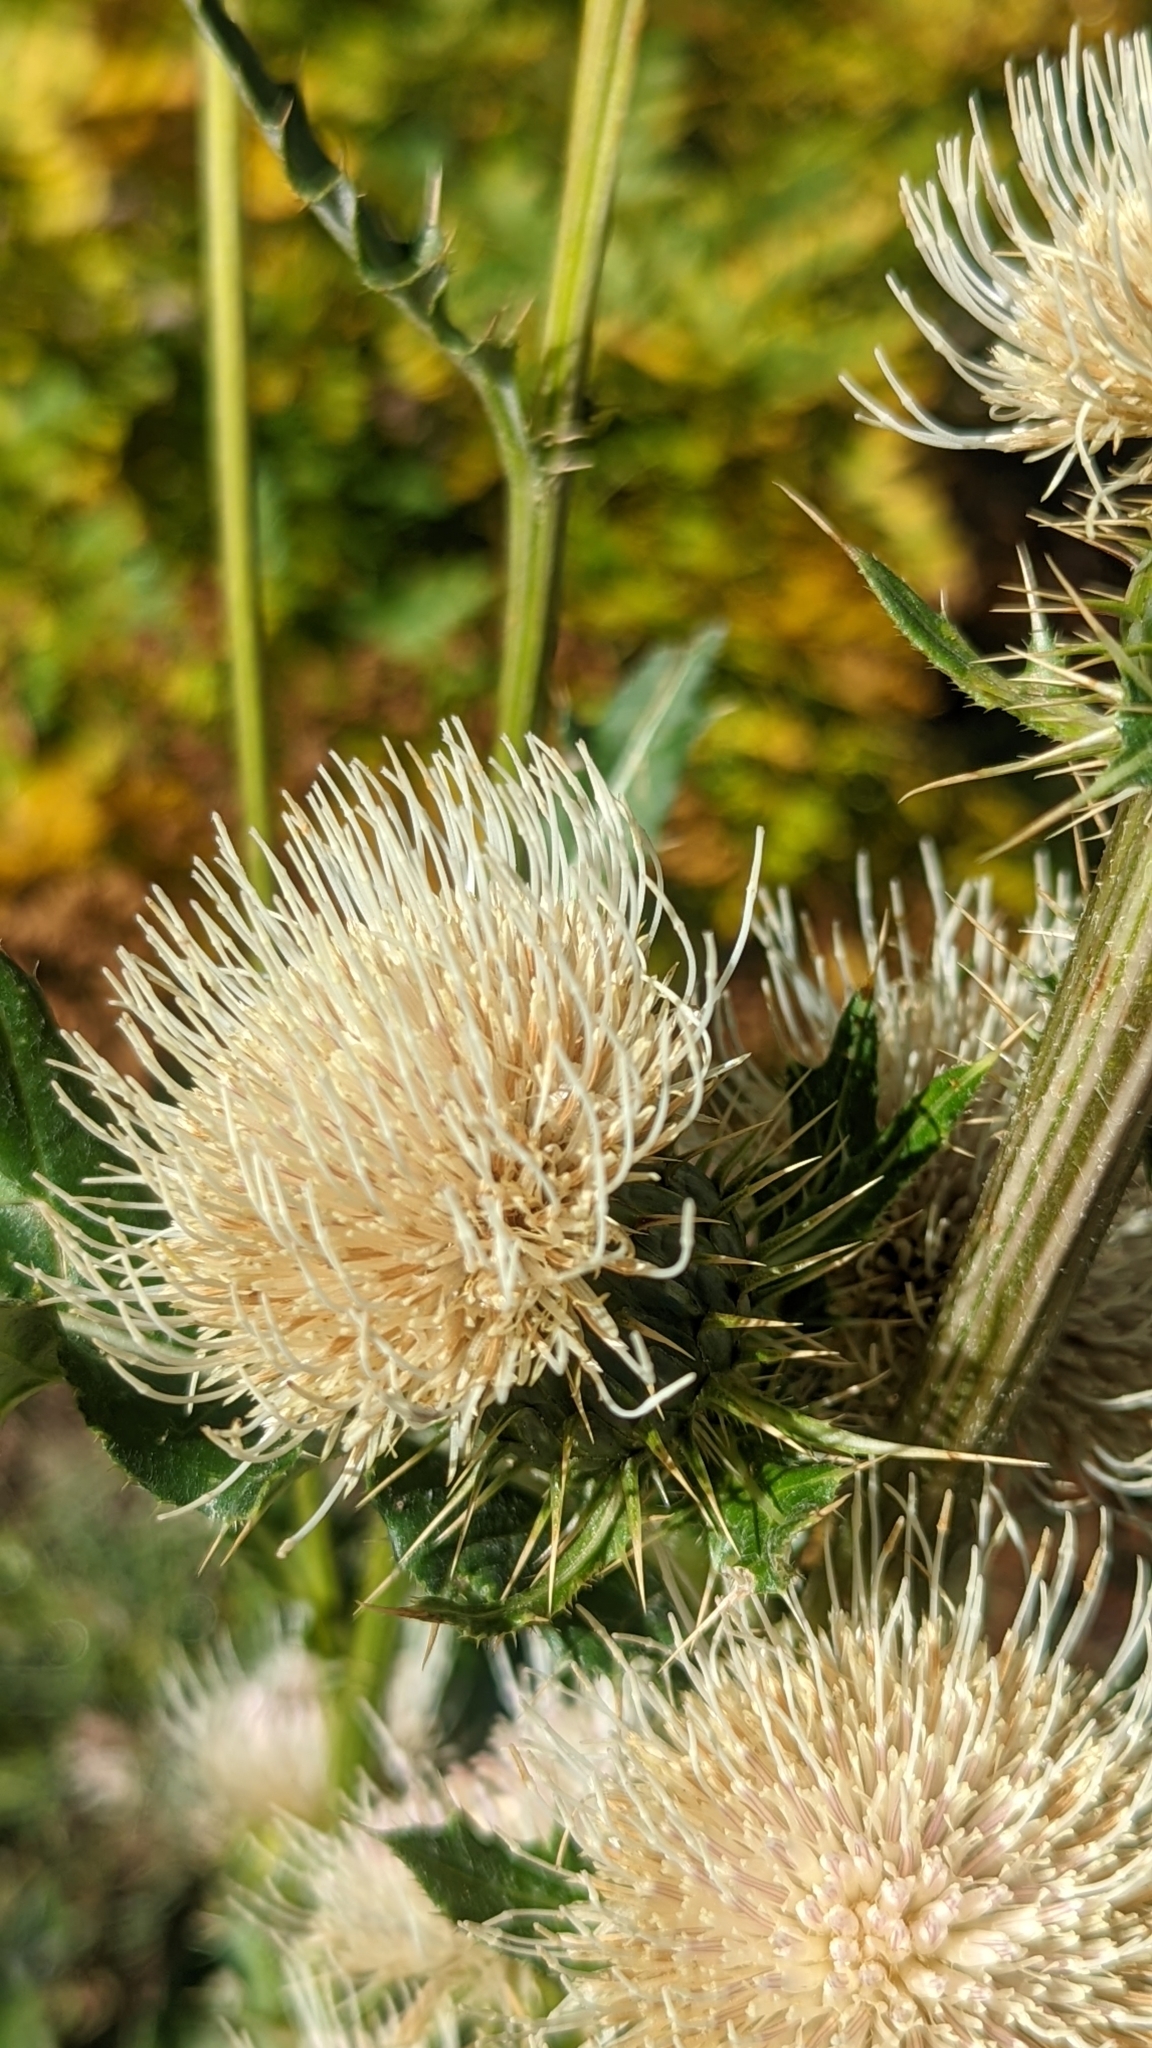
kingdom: Plantae
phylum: Tracheophyta
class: Magnoliopsida
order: Asterales
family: Asteraceae
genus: Cirsium
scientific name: Cirsium clavatum
